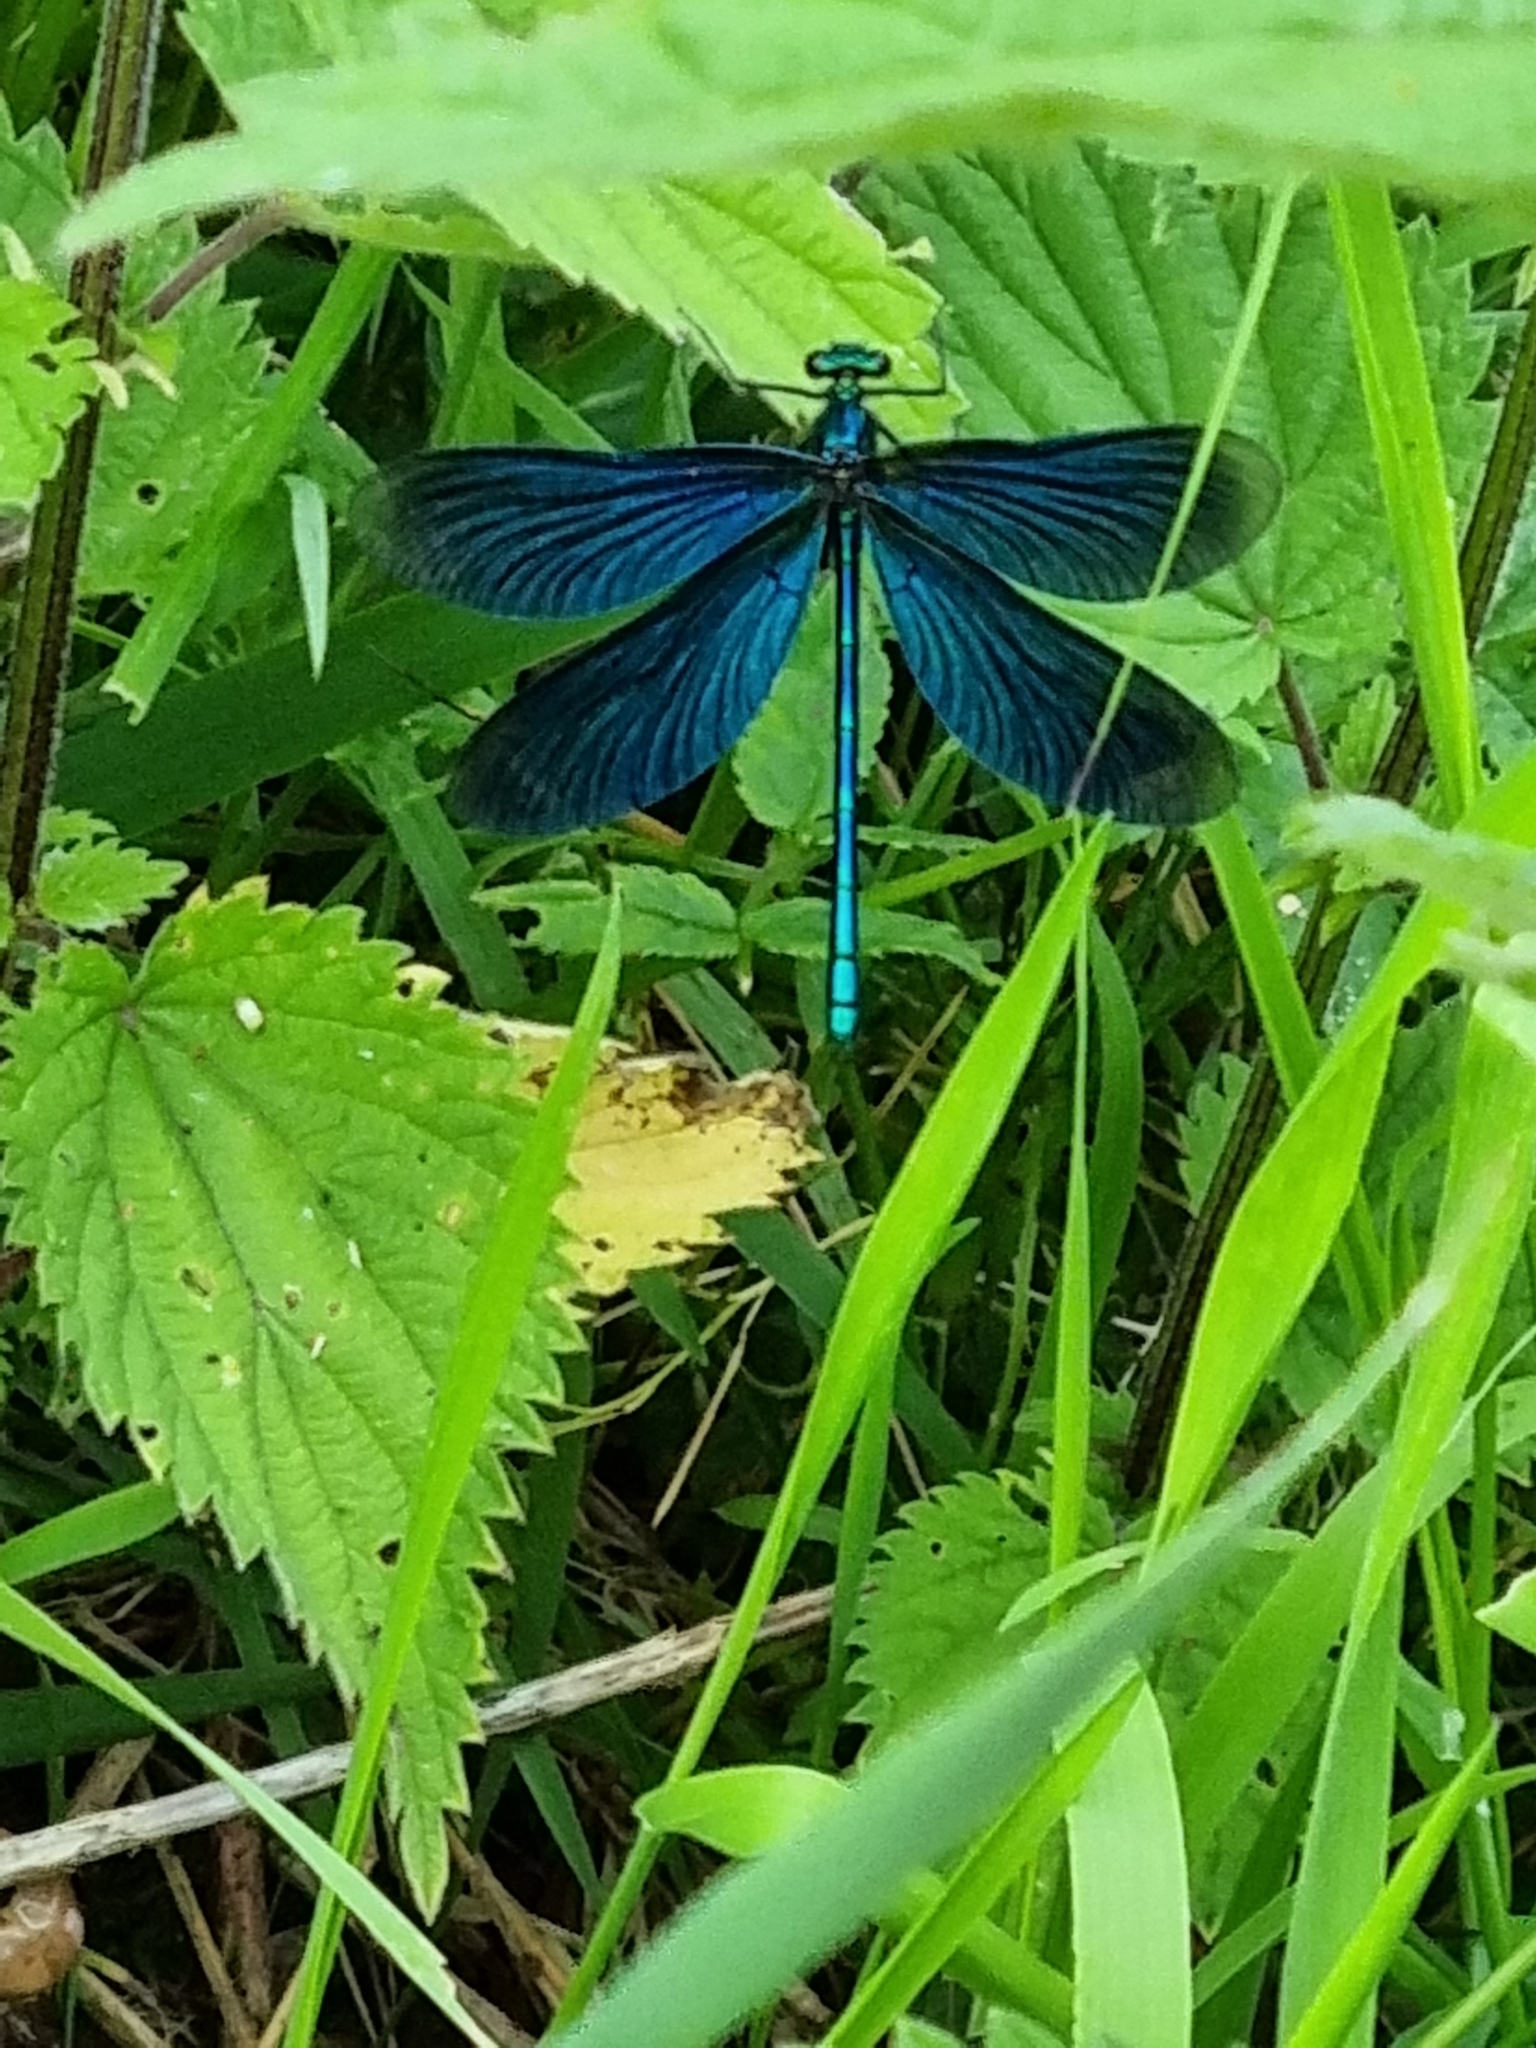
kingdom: Animalia
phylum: Arthropoda
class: Insecta
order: Odonata
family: Calopterygidae
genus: Calopteryx
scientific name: Calopteryx virgo
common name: Beautiful demoiselle
